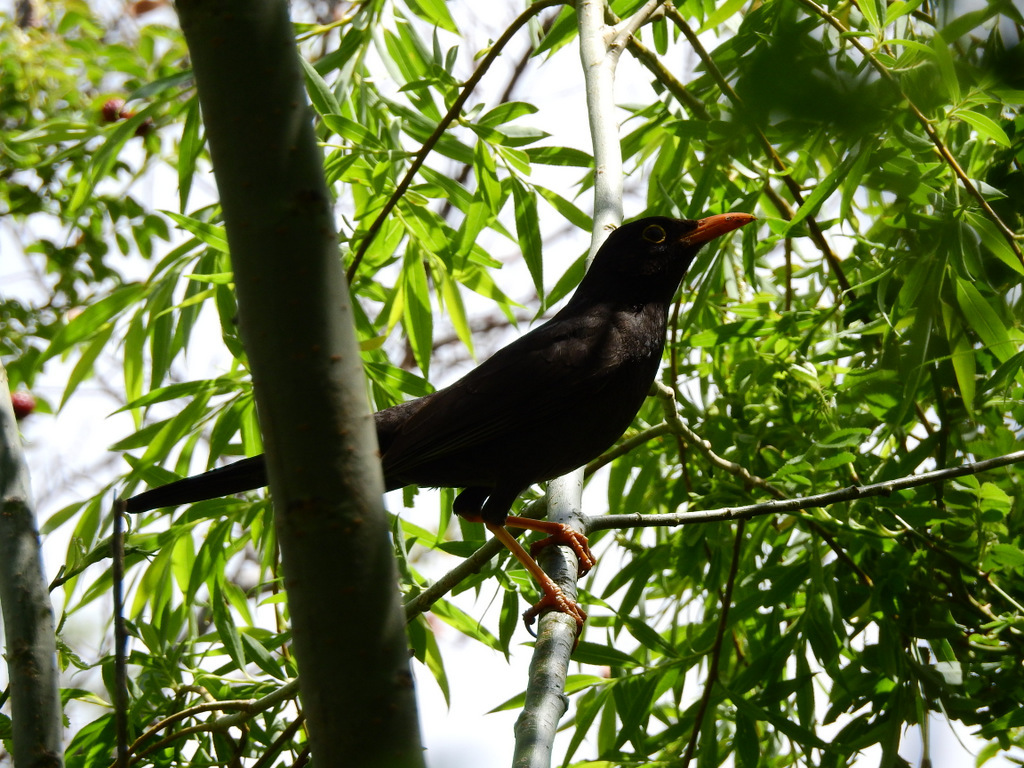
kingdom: Animalia
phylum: Chordata
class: Aves
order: Passeriformes
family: Turdidae
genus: Turdus
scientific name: Turdus chiguanco
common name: Chiguanco thrush
